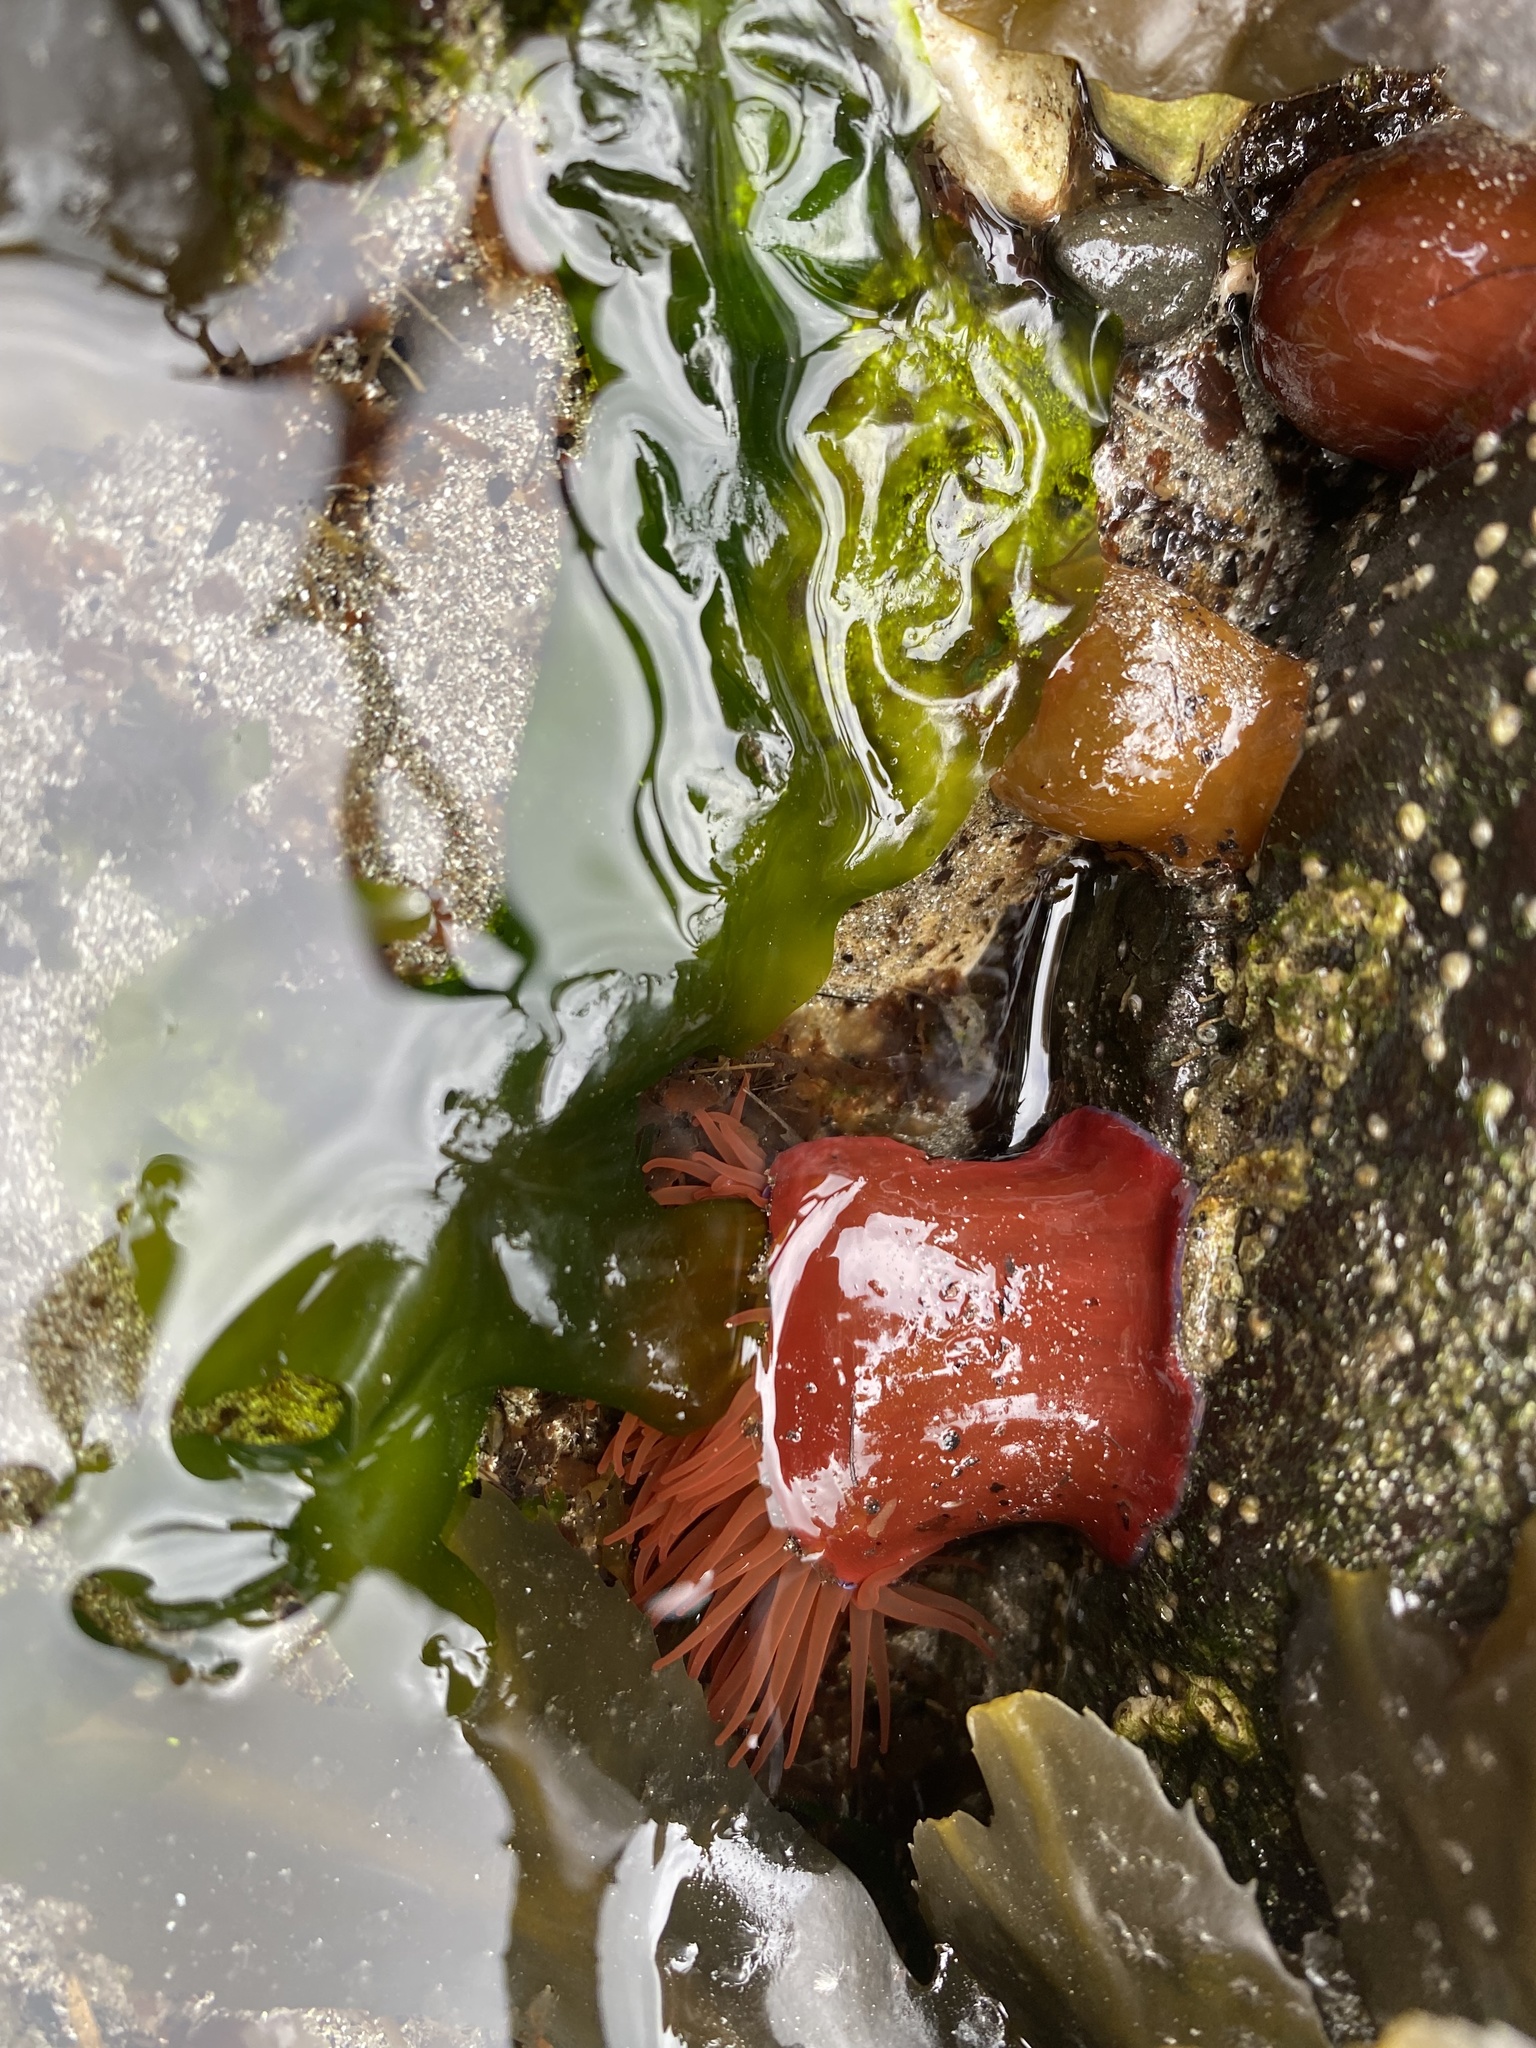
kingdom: Animalia
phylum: Cnidaria
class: Anthozoa
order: Actiniaria
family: Actiniidae
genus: Actinia
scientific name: Actinia equina
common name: Beadlet anemone
